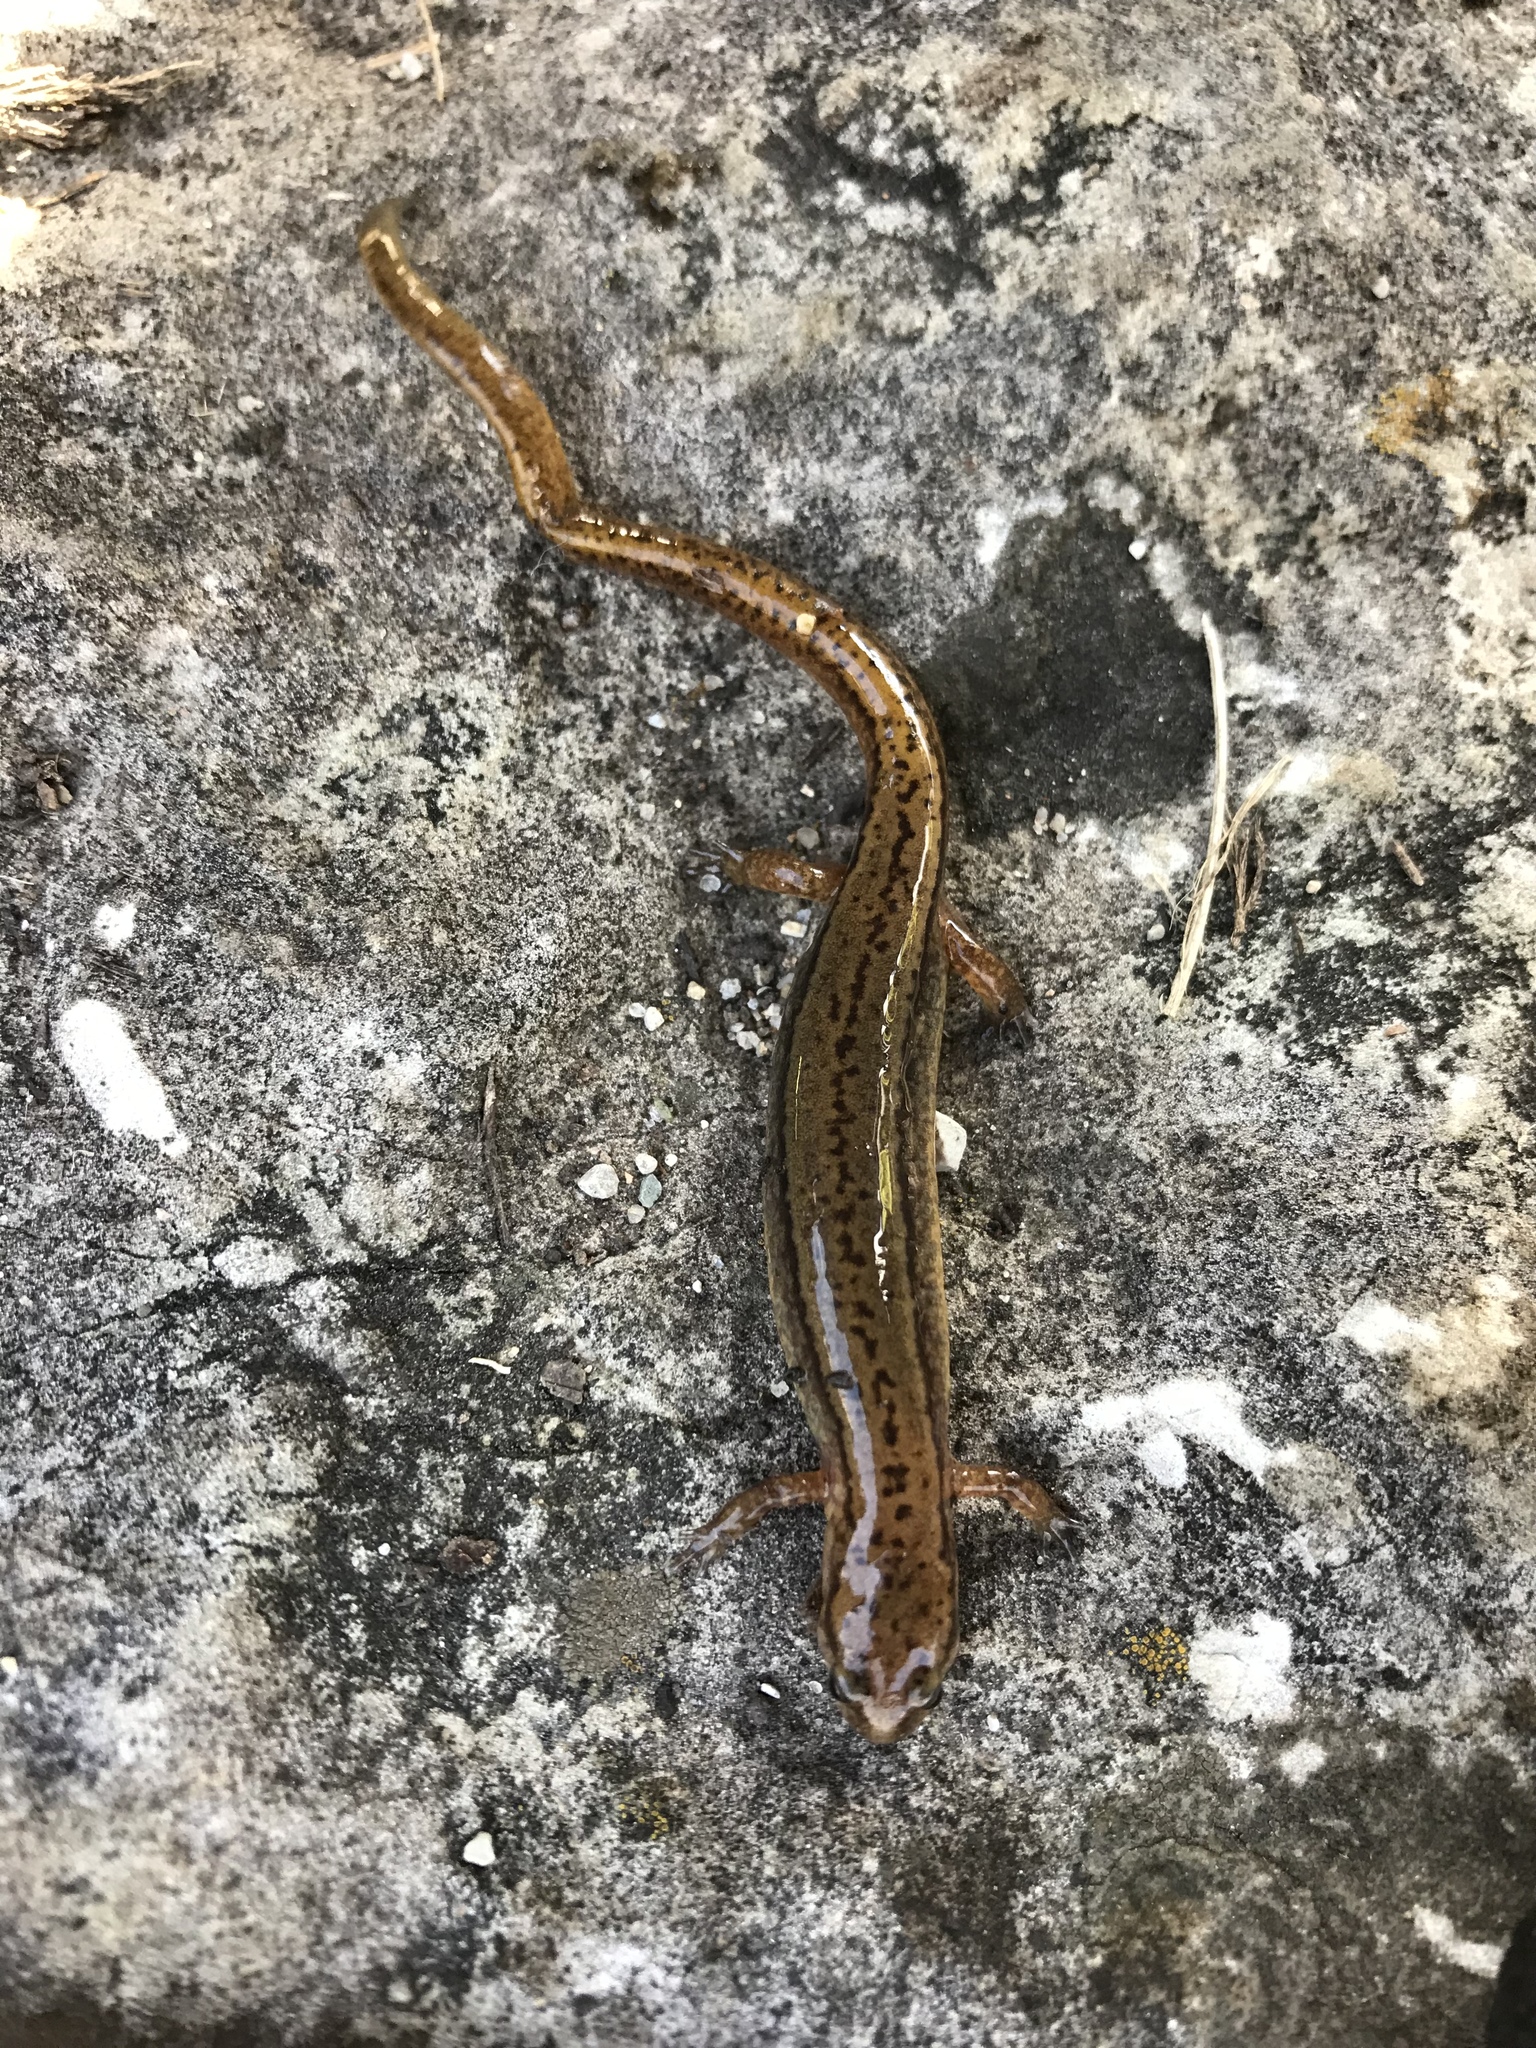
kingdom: Animalia
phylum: Chordata
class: Amphibia
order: Caudata
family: Plethodontidae
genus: Eurycea
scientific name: Eurycea cirrigera
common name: Southern two-lined salamander
